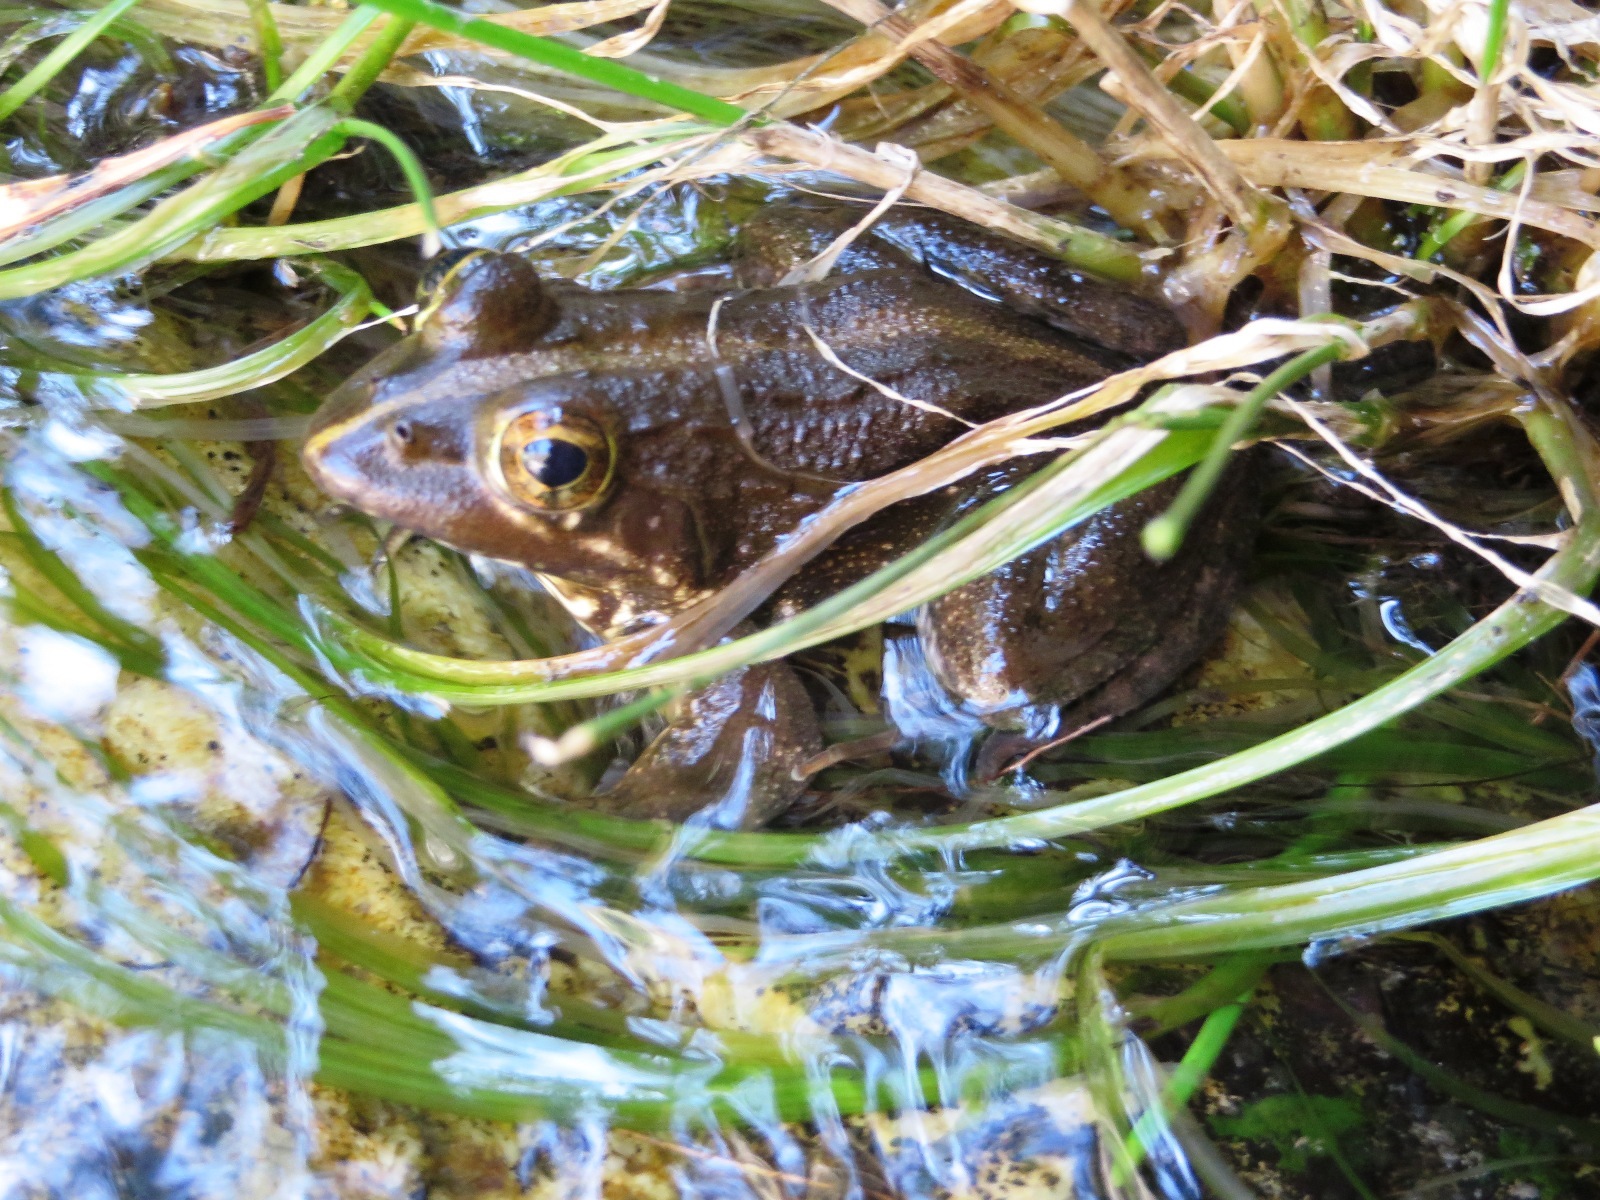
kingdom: Animalia
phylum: Chordata
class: Amphibia
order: Anura
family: Pyxicephalidae
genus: Amietia
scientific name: Amietia fuscigula
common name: Cape rana
